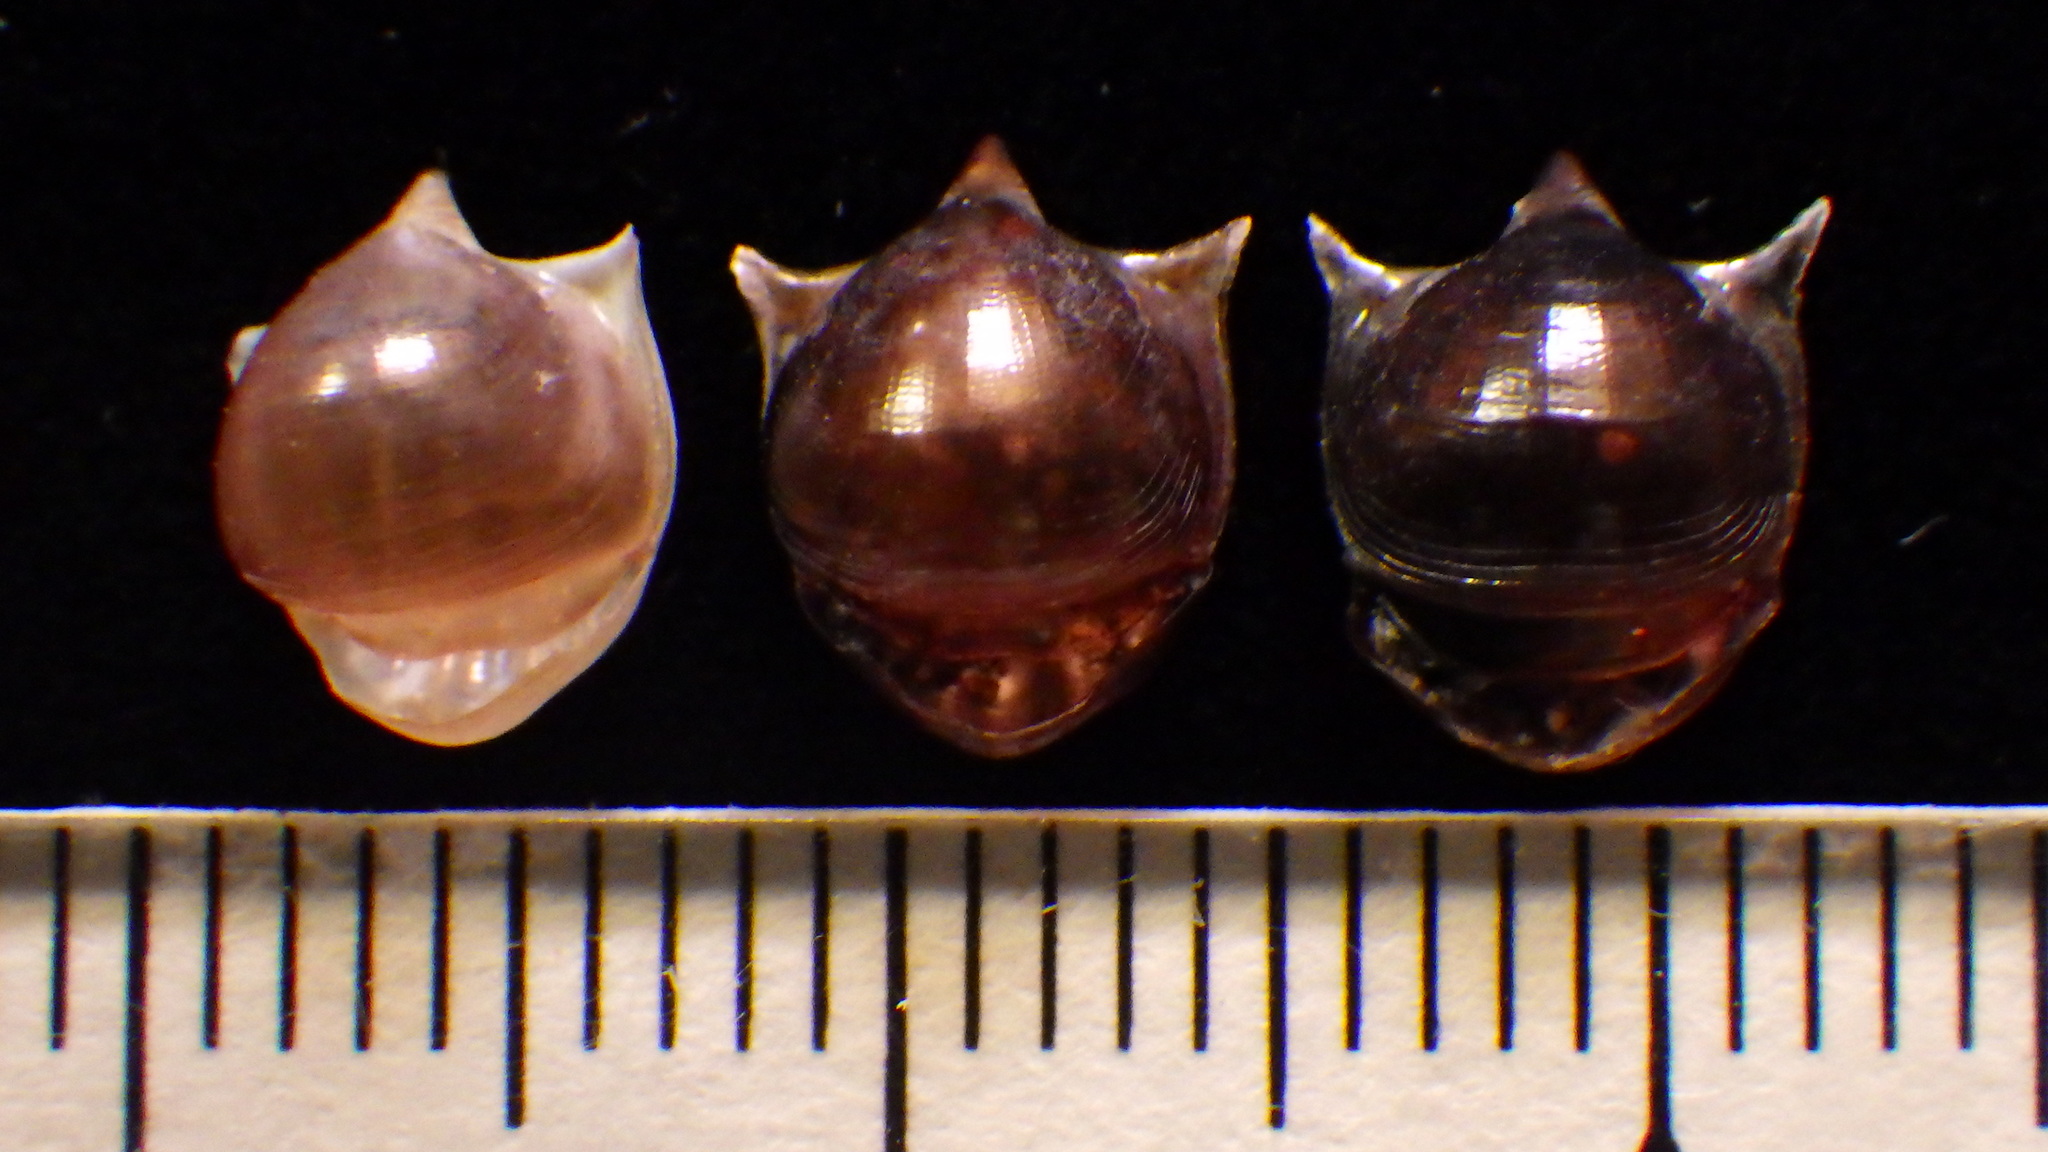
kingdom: Animalia
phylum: Mollusca
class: Gastropoda
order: Pteropoda
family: Cavoliniidae
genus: Cavolinia
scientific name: Cavolinia uncinata
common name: Uncinate cavoline
